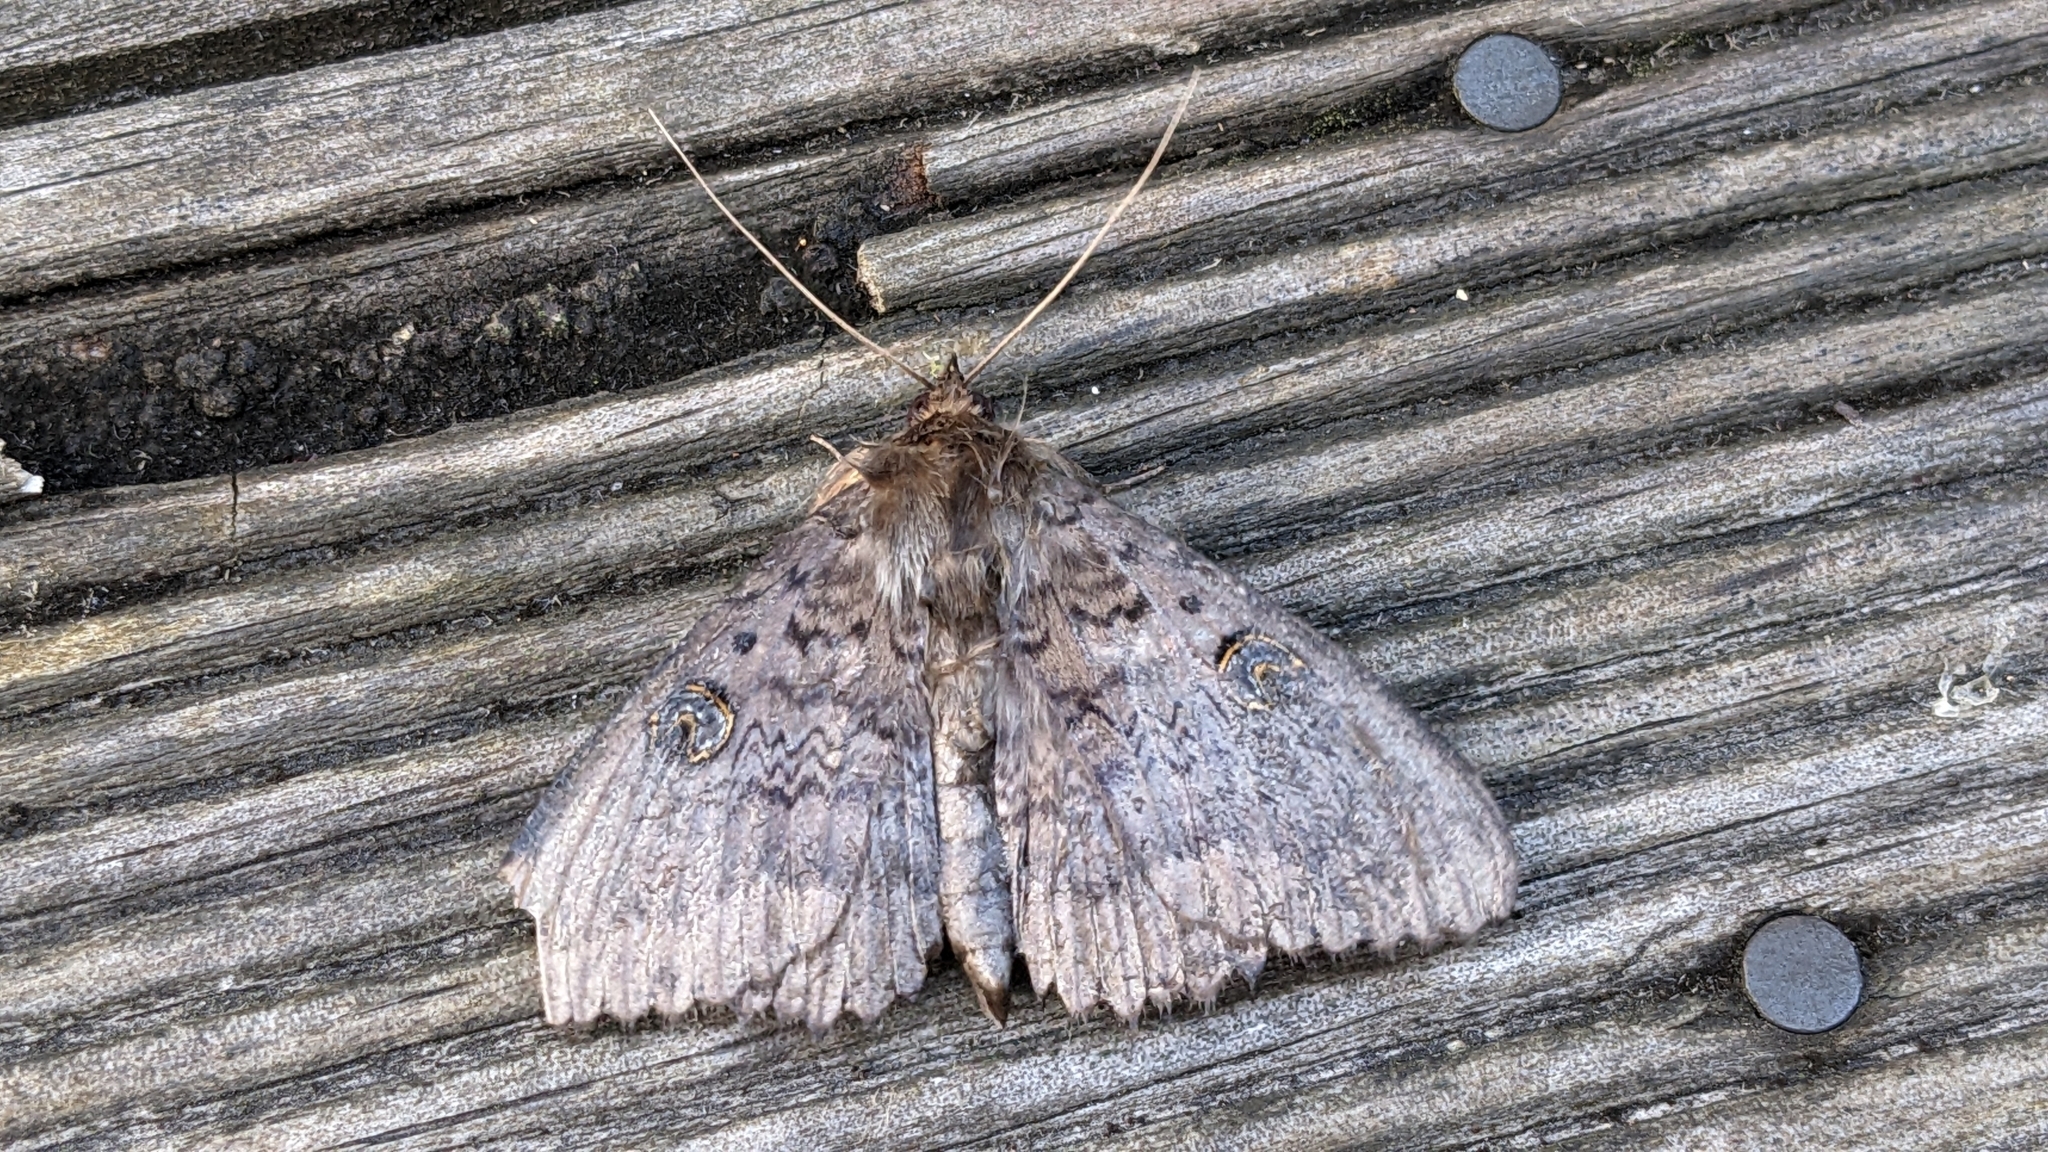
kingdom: Animalia
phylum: Arthropoda
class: Insecta
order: Lepidoptera
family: Erebidae
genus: Dasypodia
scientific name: Dasypodia cymatodes
